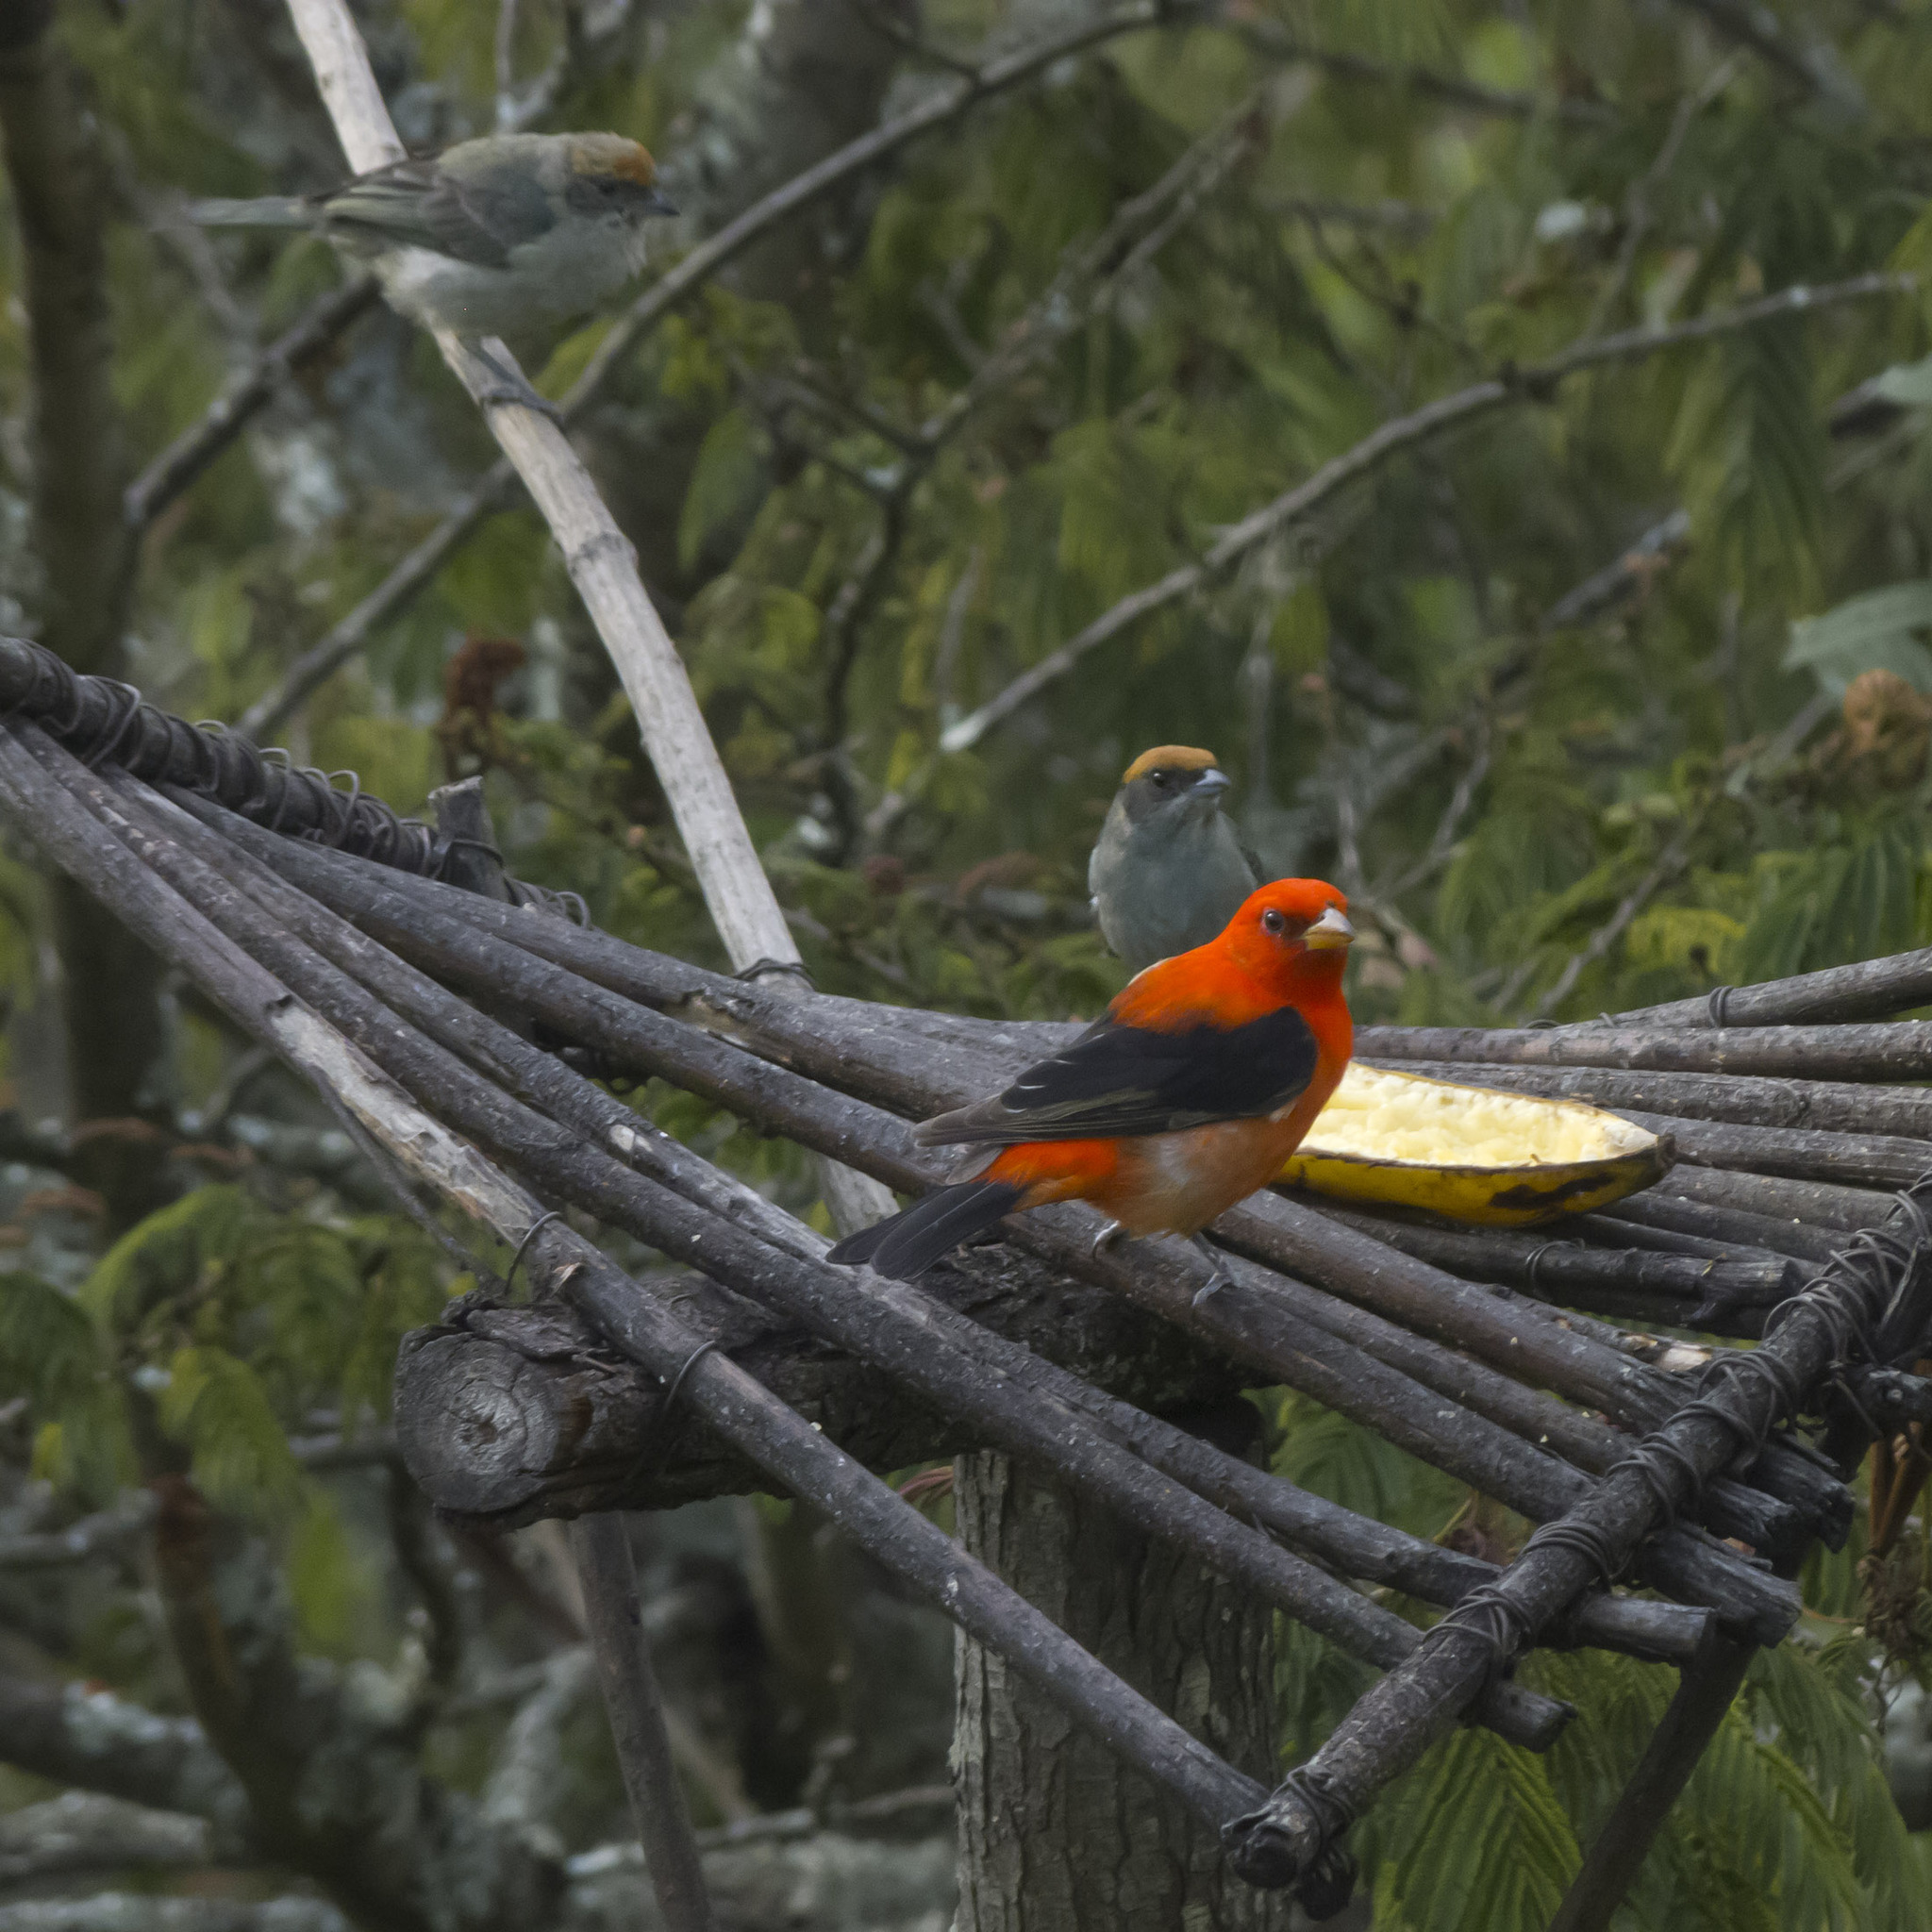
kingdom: Animalia
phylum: Chordata
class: Aves
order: Passeriformes
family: Cardinalidae
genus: Piranga
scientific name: Piranga olivacea
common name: Scarlet tanager
